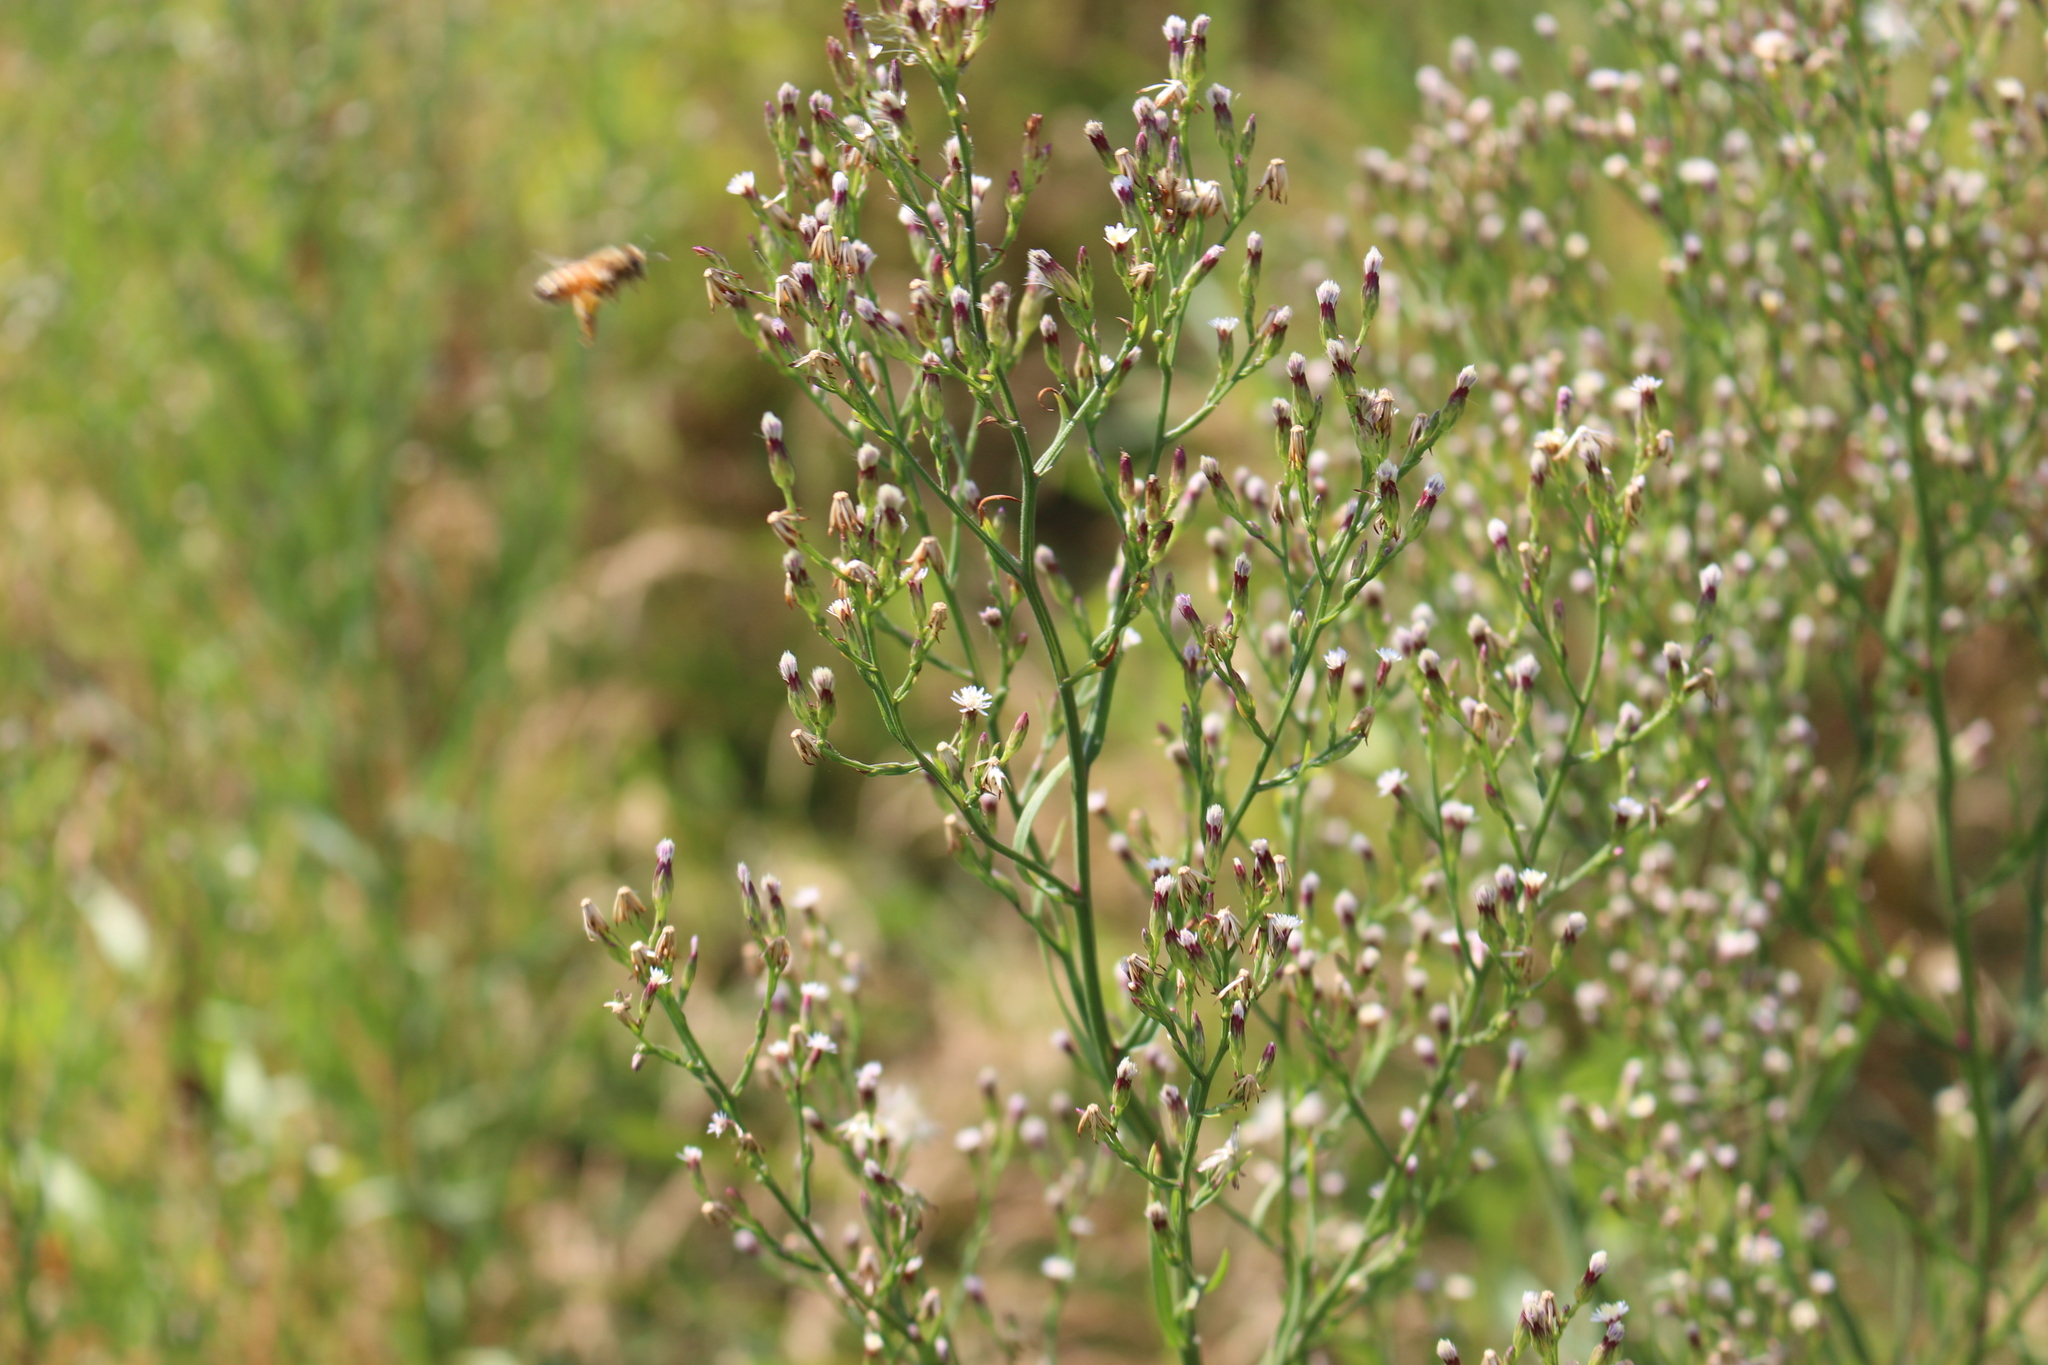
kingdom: Plantae
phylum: Tracheophyta
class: Magnoliopsida
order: Asterales
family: Asteraceae
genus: Symphyotrichum
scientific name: Symphyotrichum subulatum
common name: Annual saltmarsh aster
